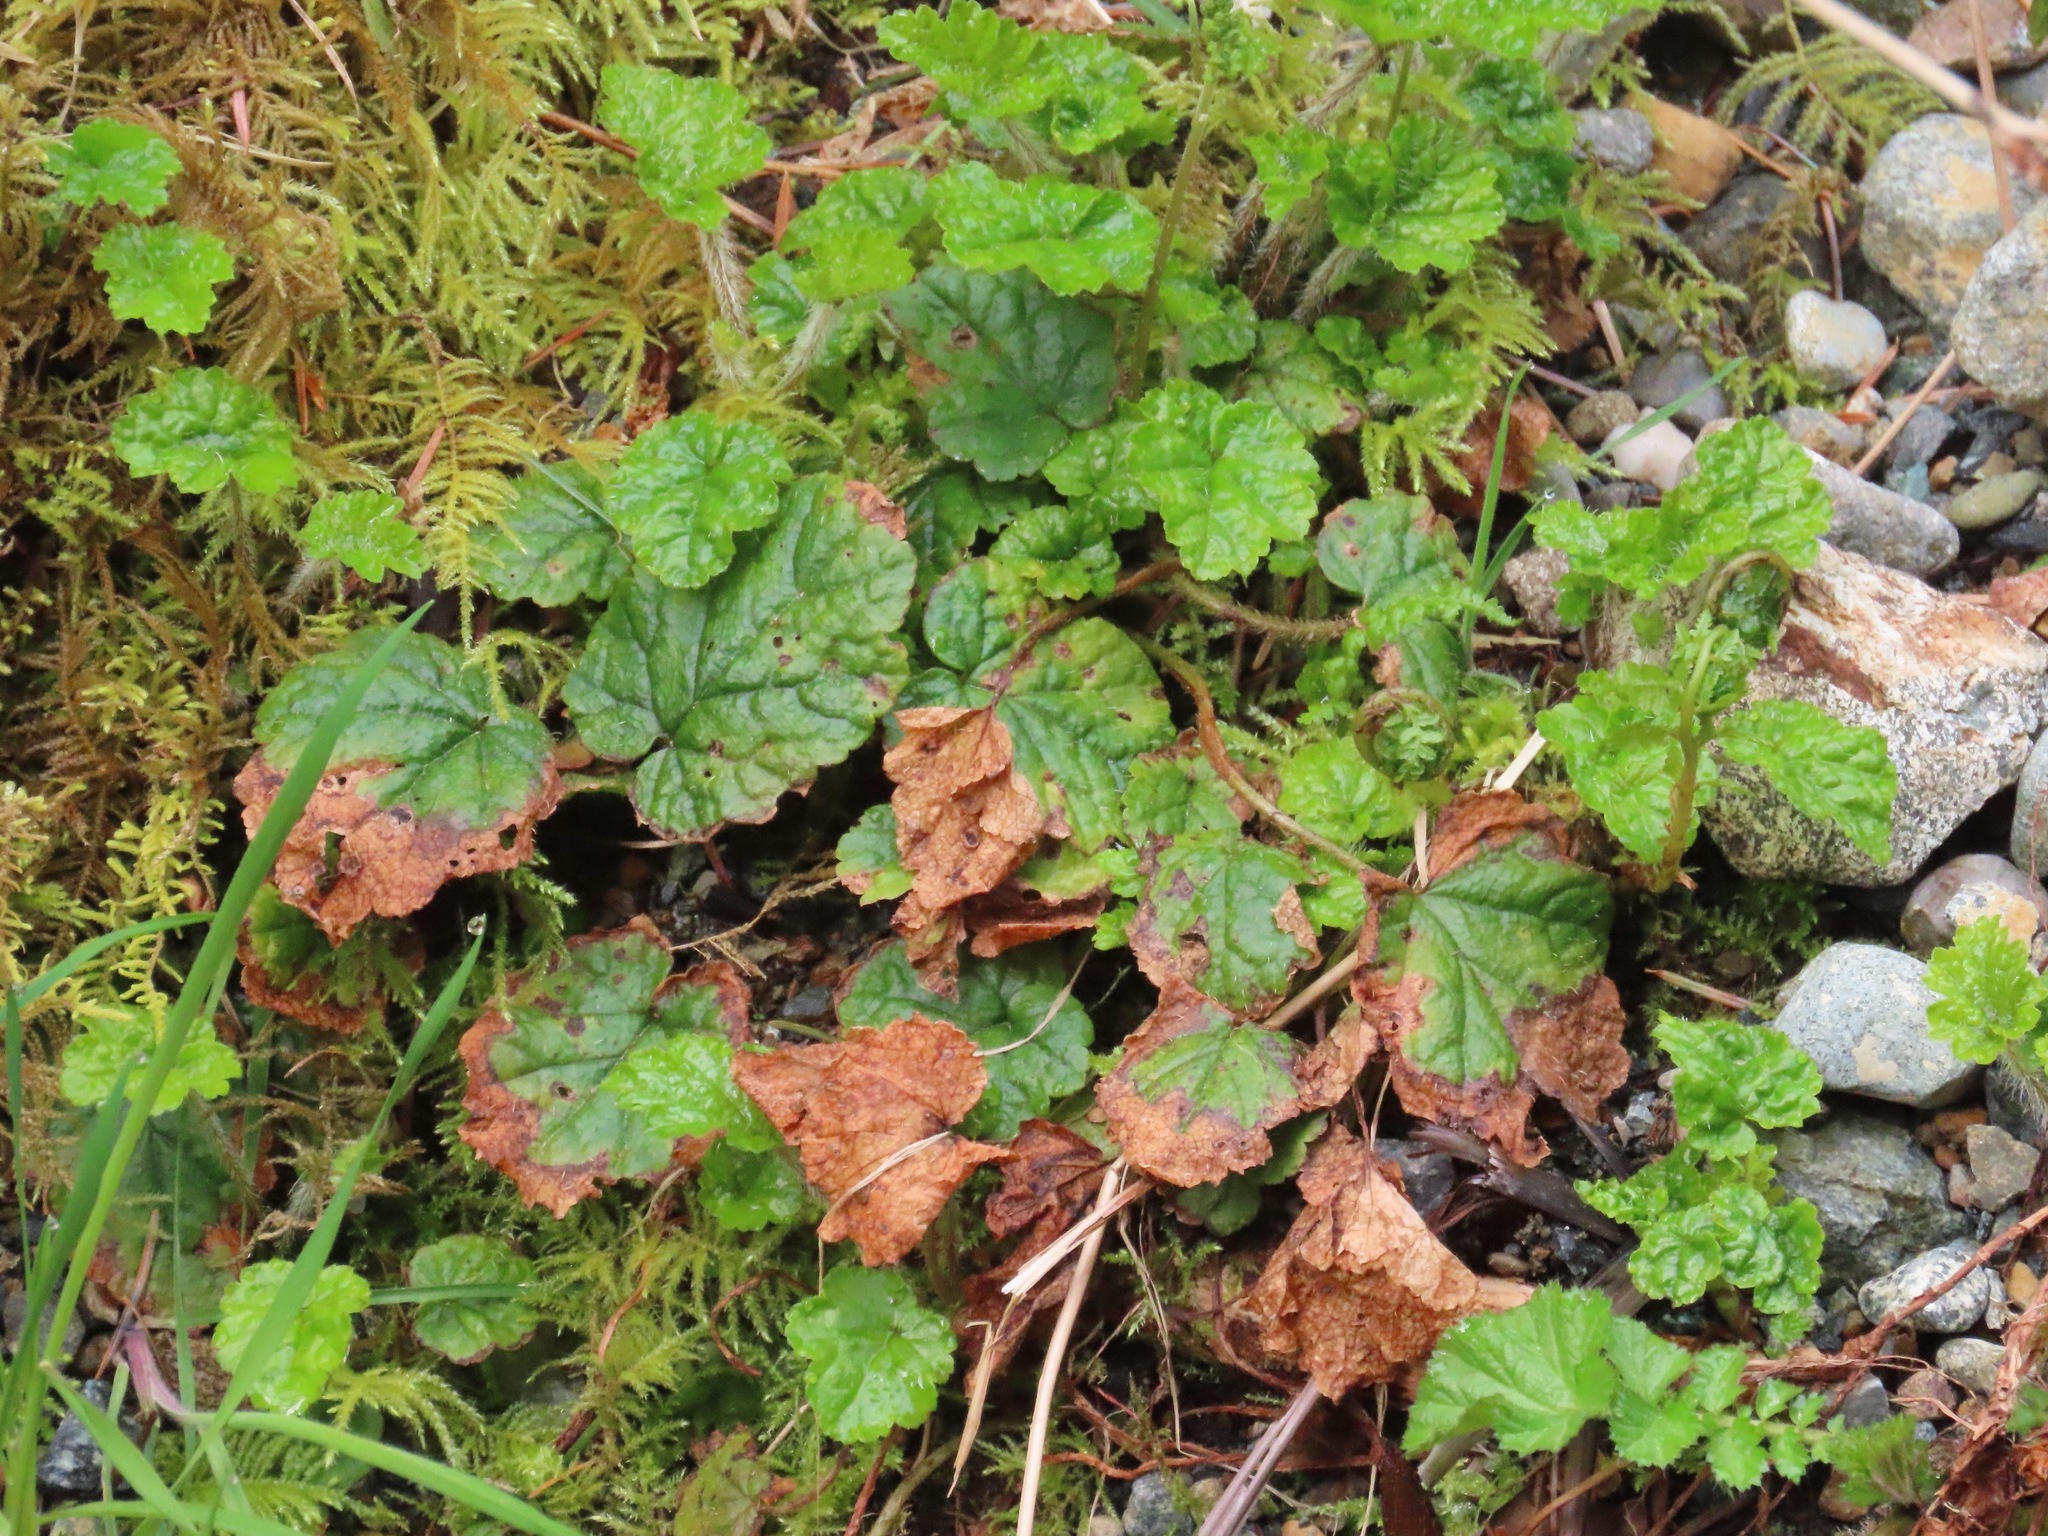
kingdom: Plantae
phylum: Tracheophyta
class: Magnoliopsida
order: Saxifragales
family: Saxifragaceae
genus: Brewerimitella
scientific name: Brewerimitella ovalis
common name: Coastal bishop's-cap
